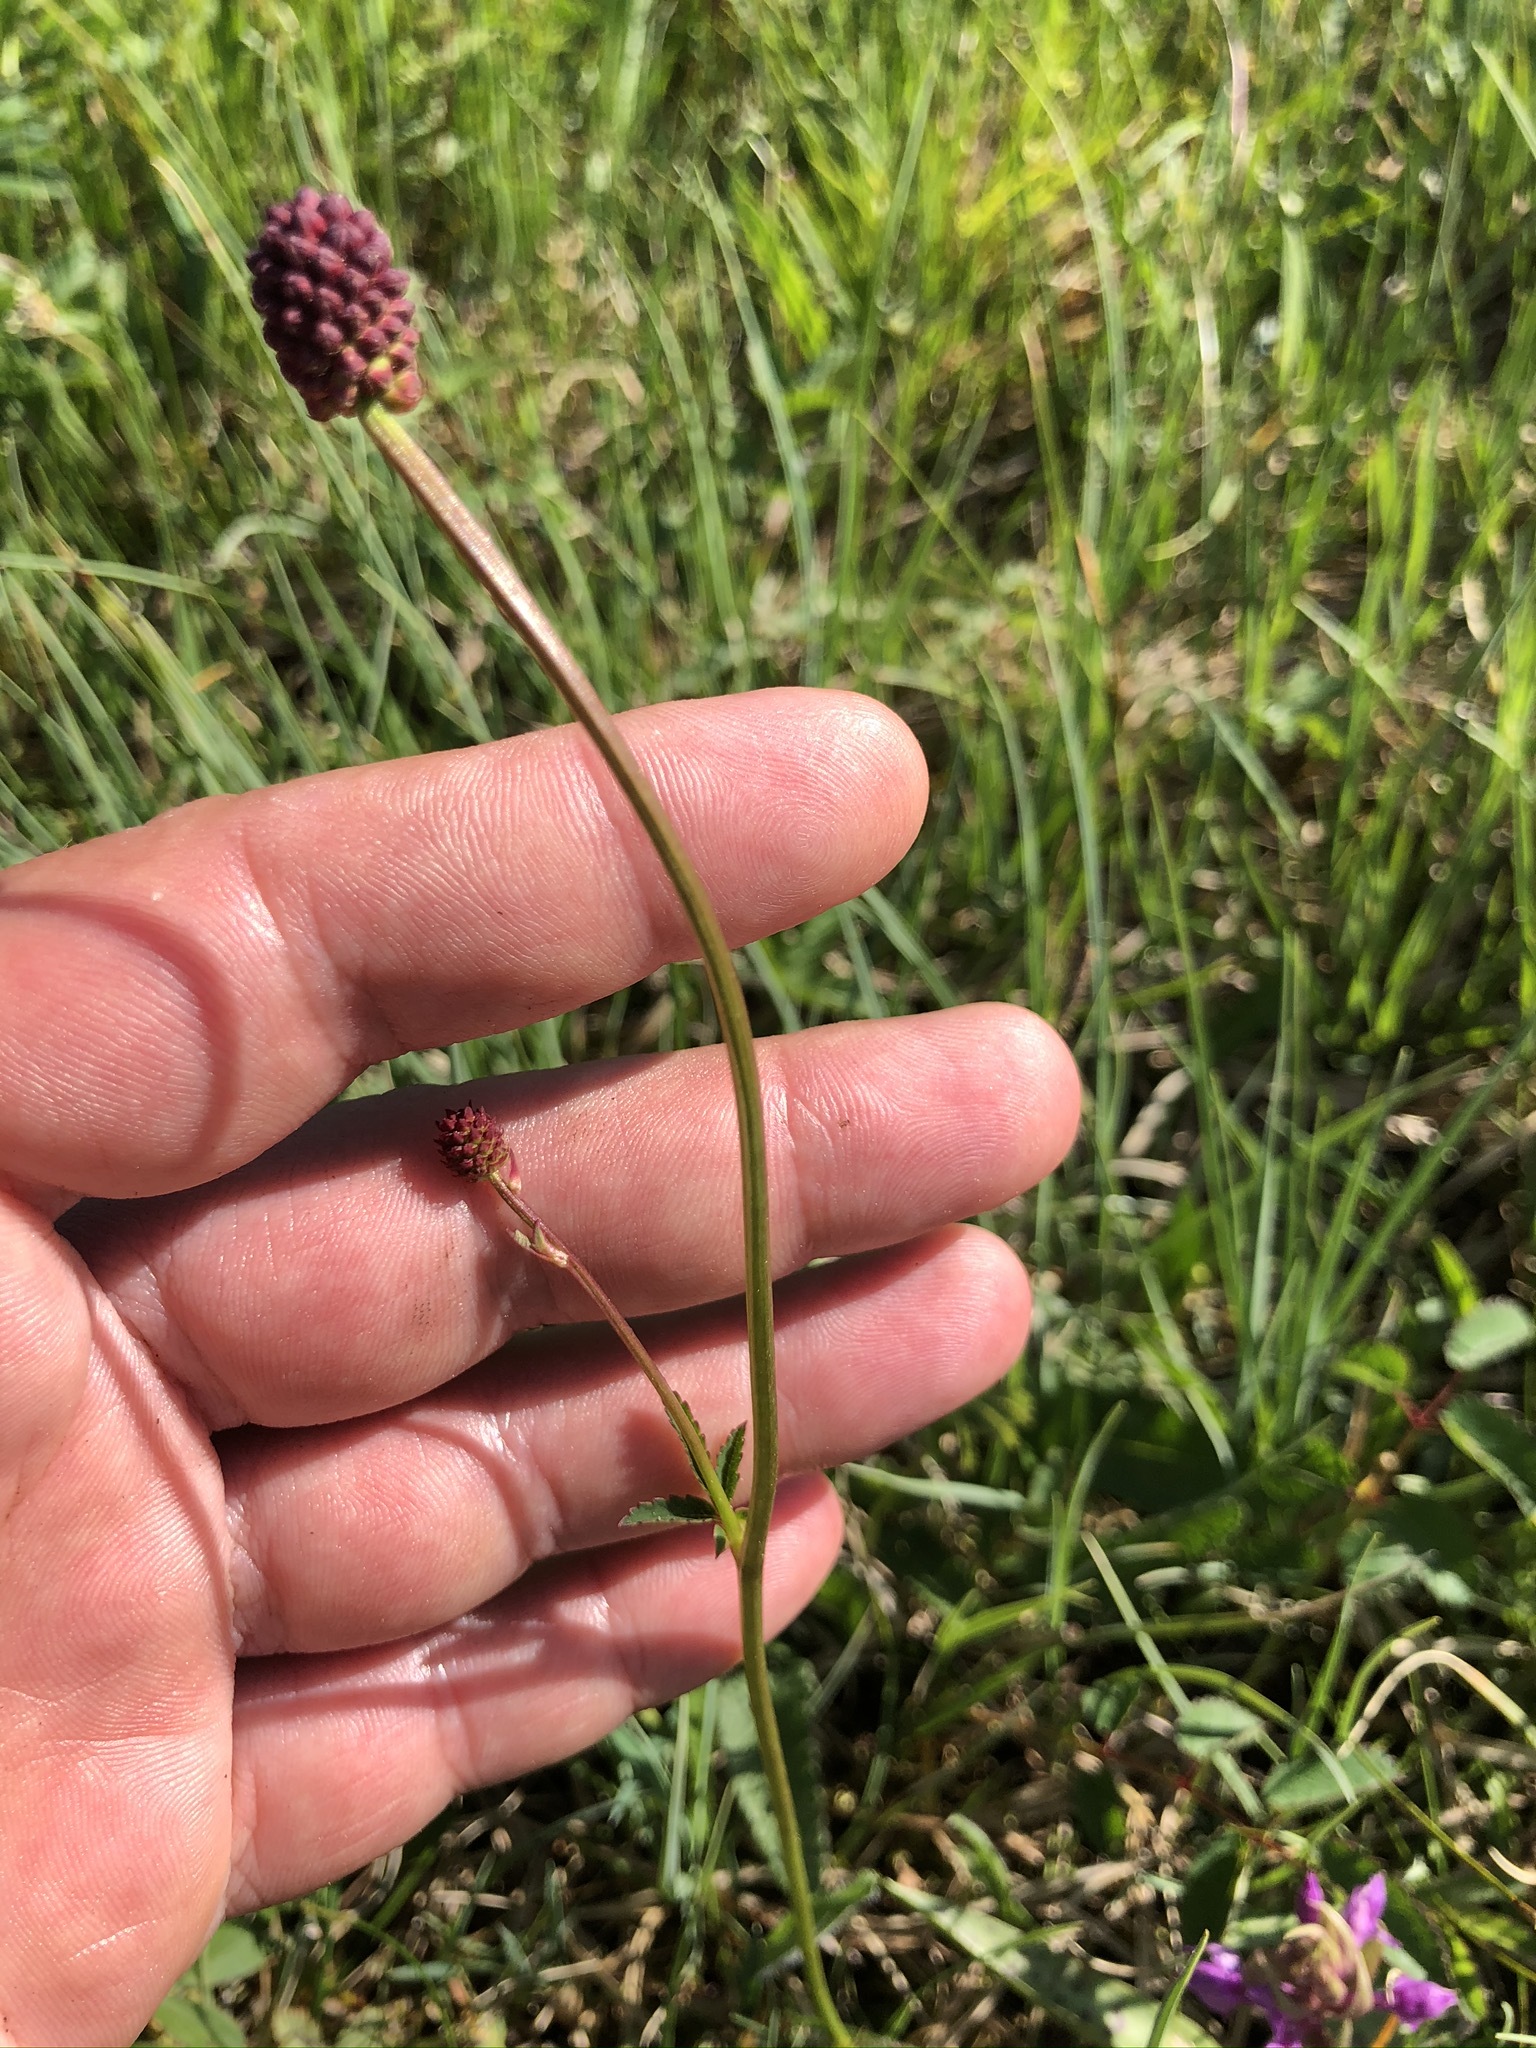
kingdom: Plantae
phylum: Tracheophyta
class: Magnoliopsida
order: Rosales
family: Rosaceae
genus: Sanguisorba
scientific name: Sanguisorba officinalis
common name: Great burnet
